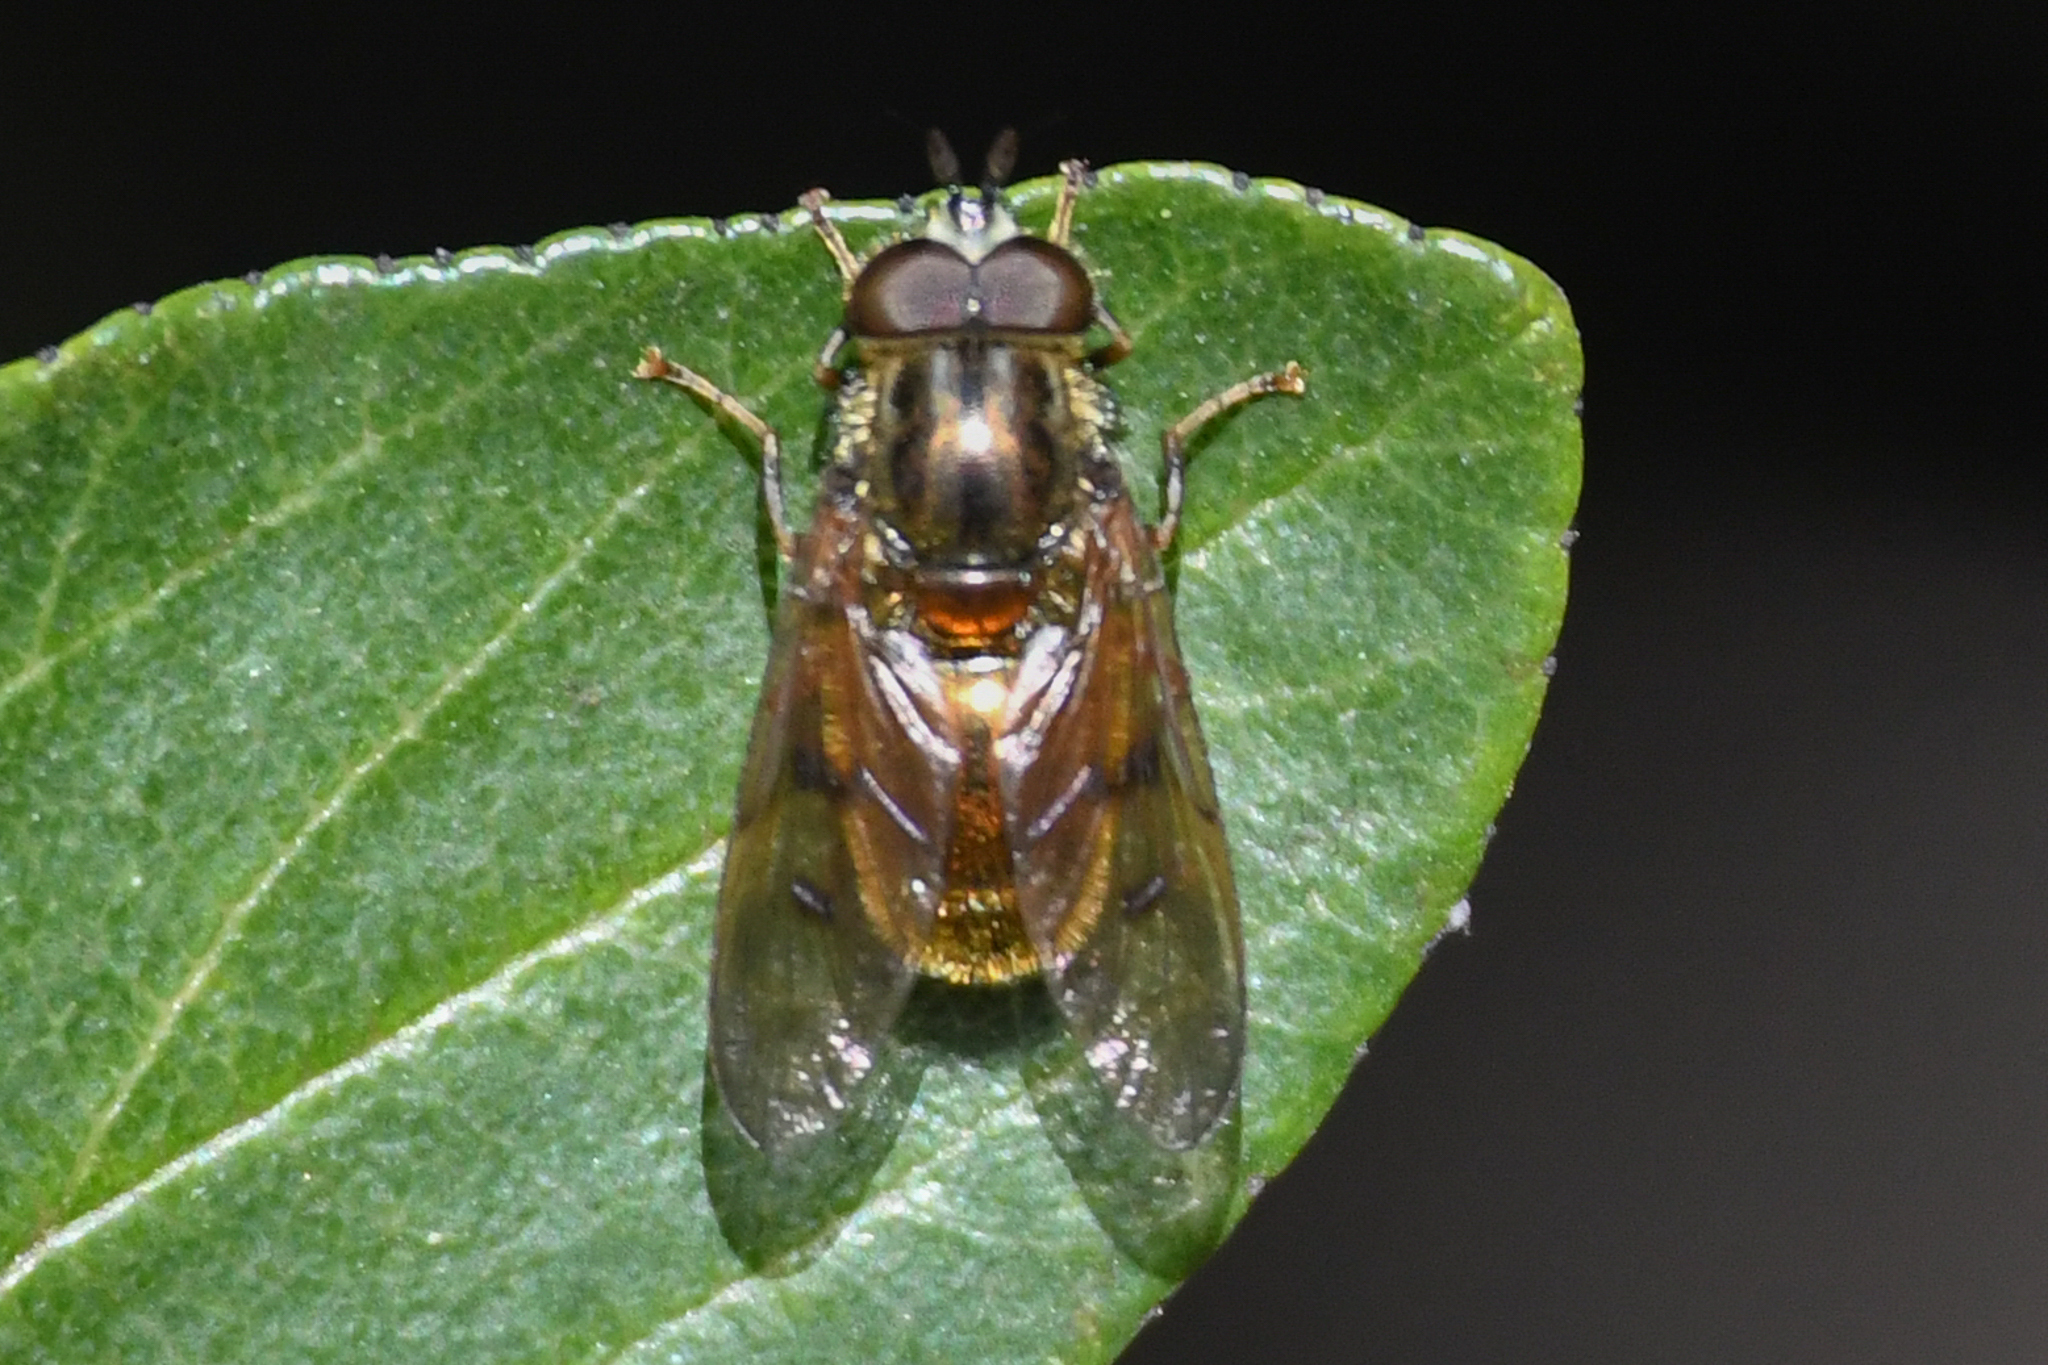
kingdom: Animalia
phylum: Arthropoda
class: Insecta
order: Diptera
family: Syrphidae
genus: Ferdinandea
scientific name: Ferdinandea croesus
